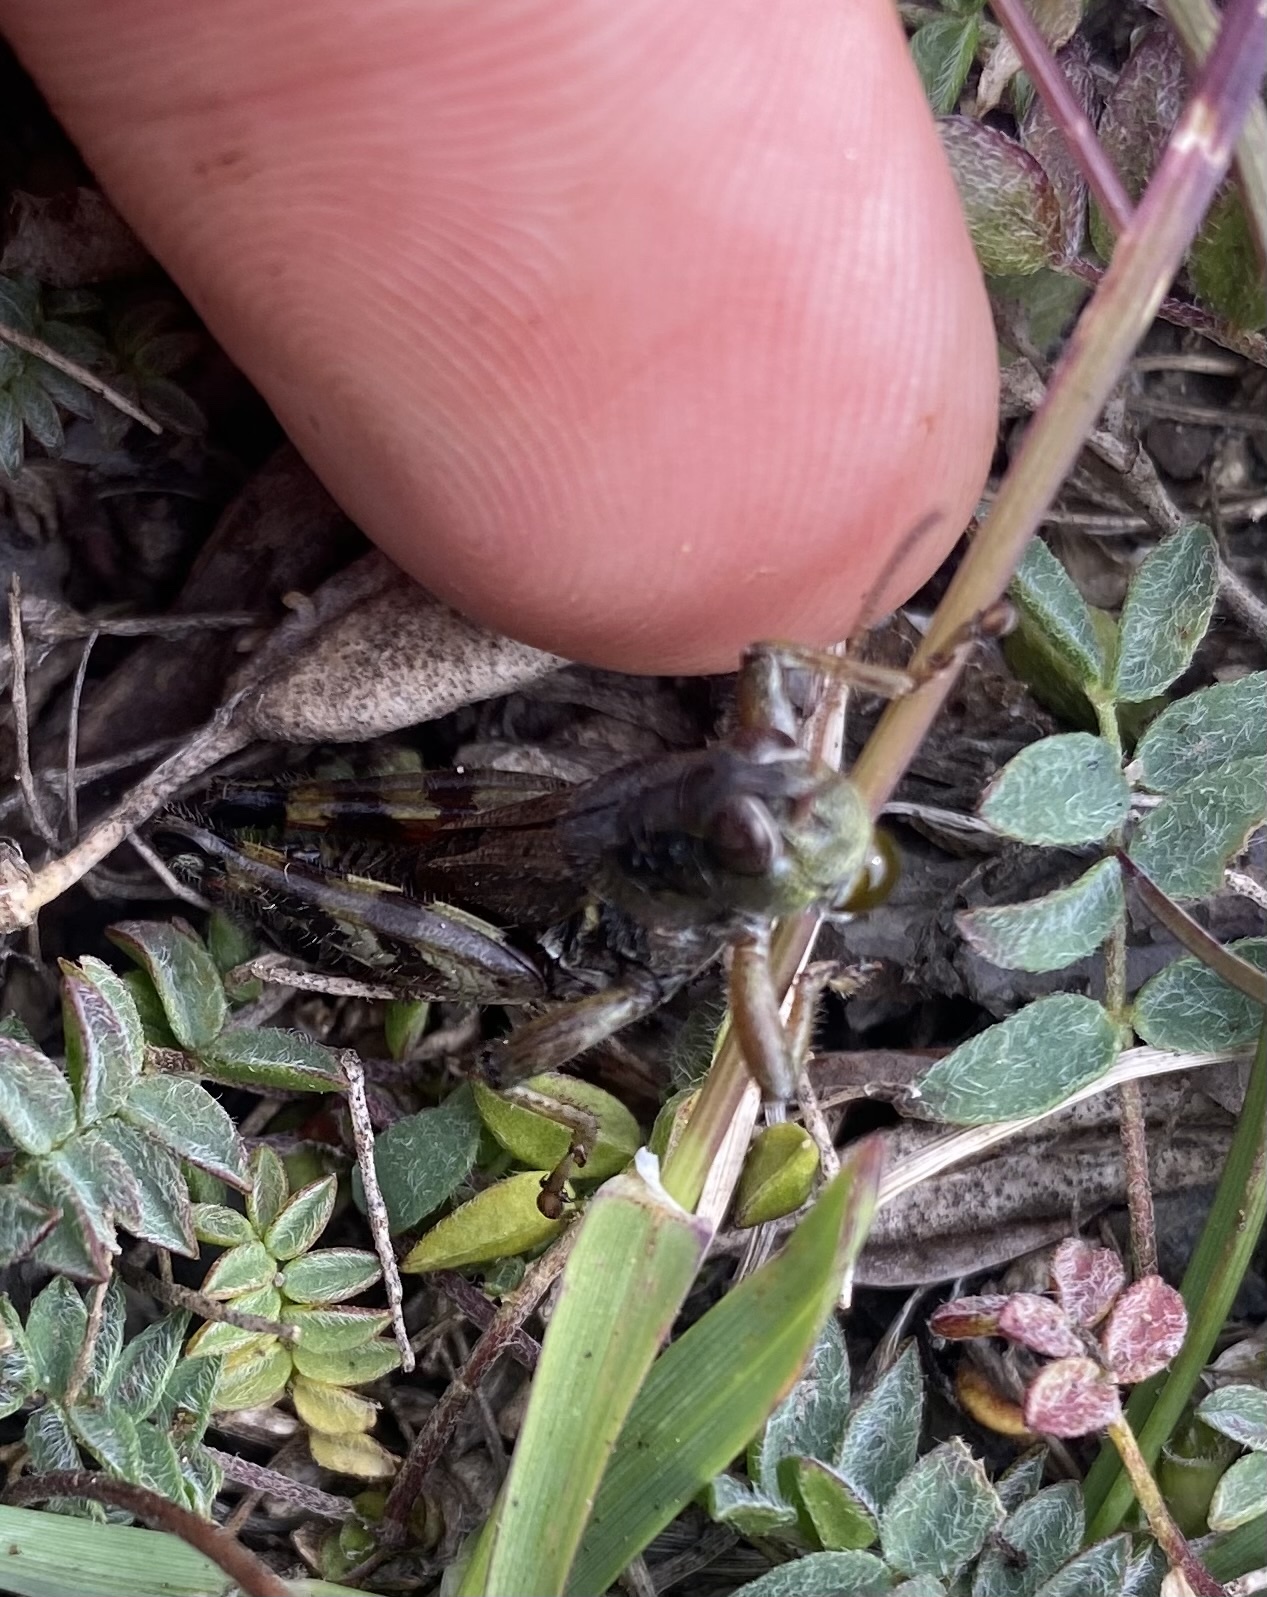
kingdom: Animalia
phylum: Arthropoda
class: Insecta
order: Orthoptera
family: Acrididae
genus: Bohemanella
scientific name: Bohemanella frigida
